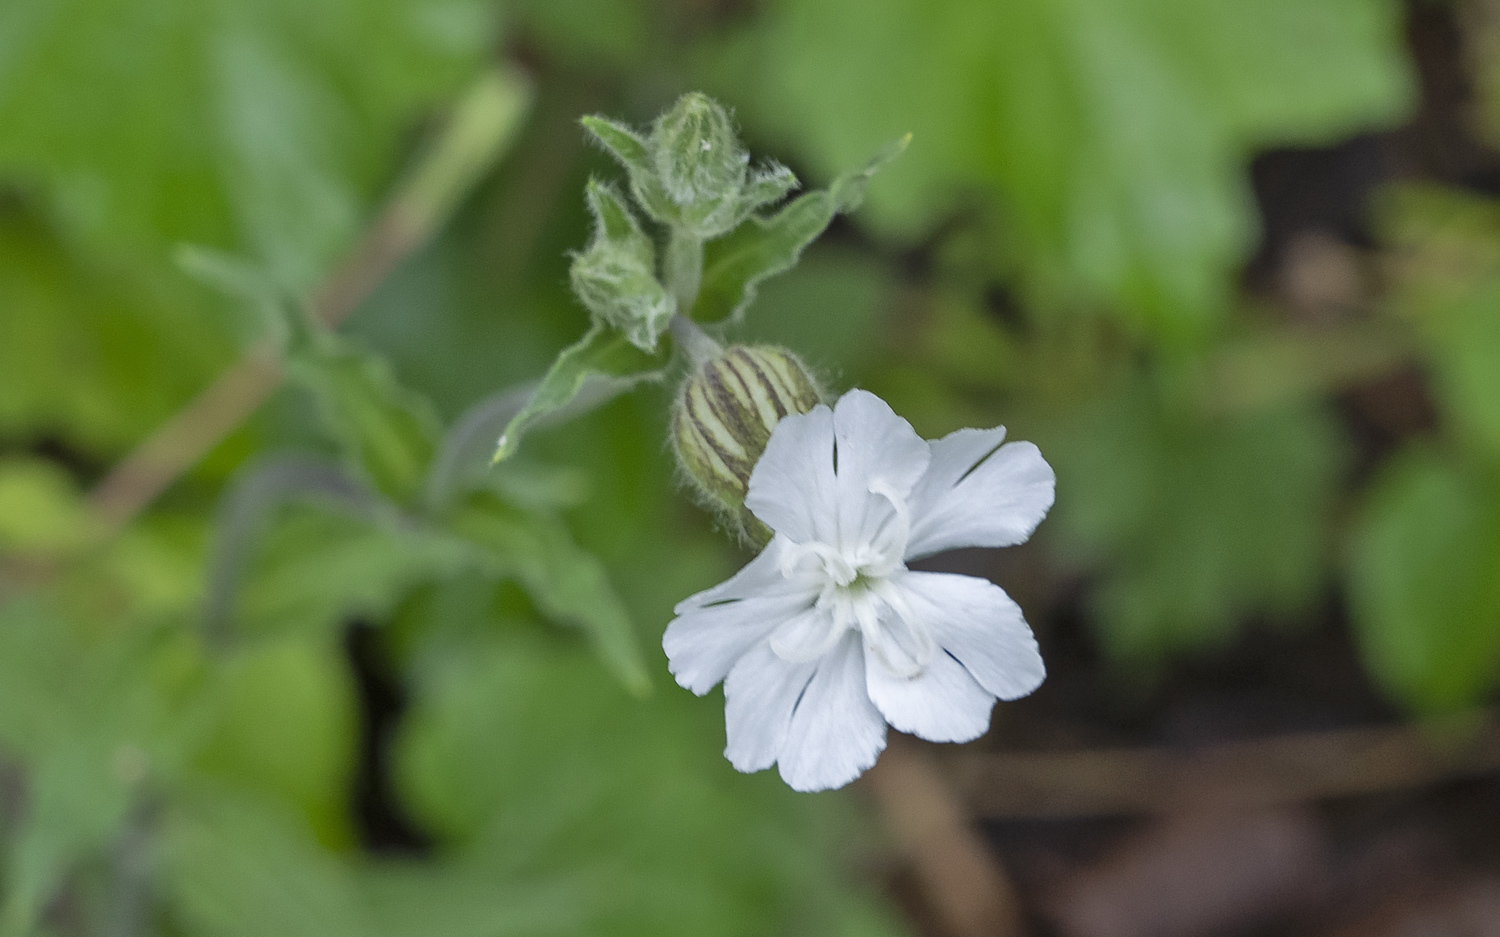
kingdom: Plantae
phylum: Tracheophyta
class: Magnoliopsida
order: Caryophyllales
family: Caryophyllaceae
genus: Silene
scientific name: Silene latifolia
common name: White campion
